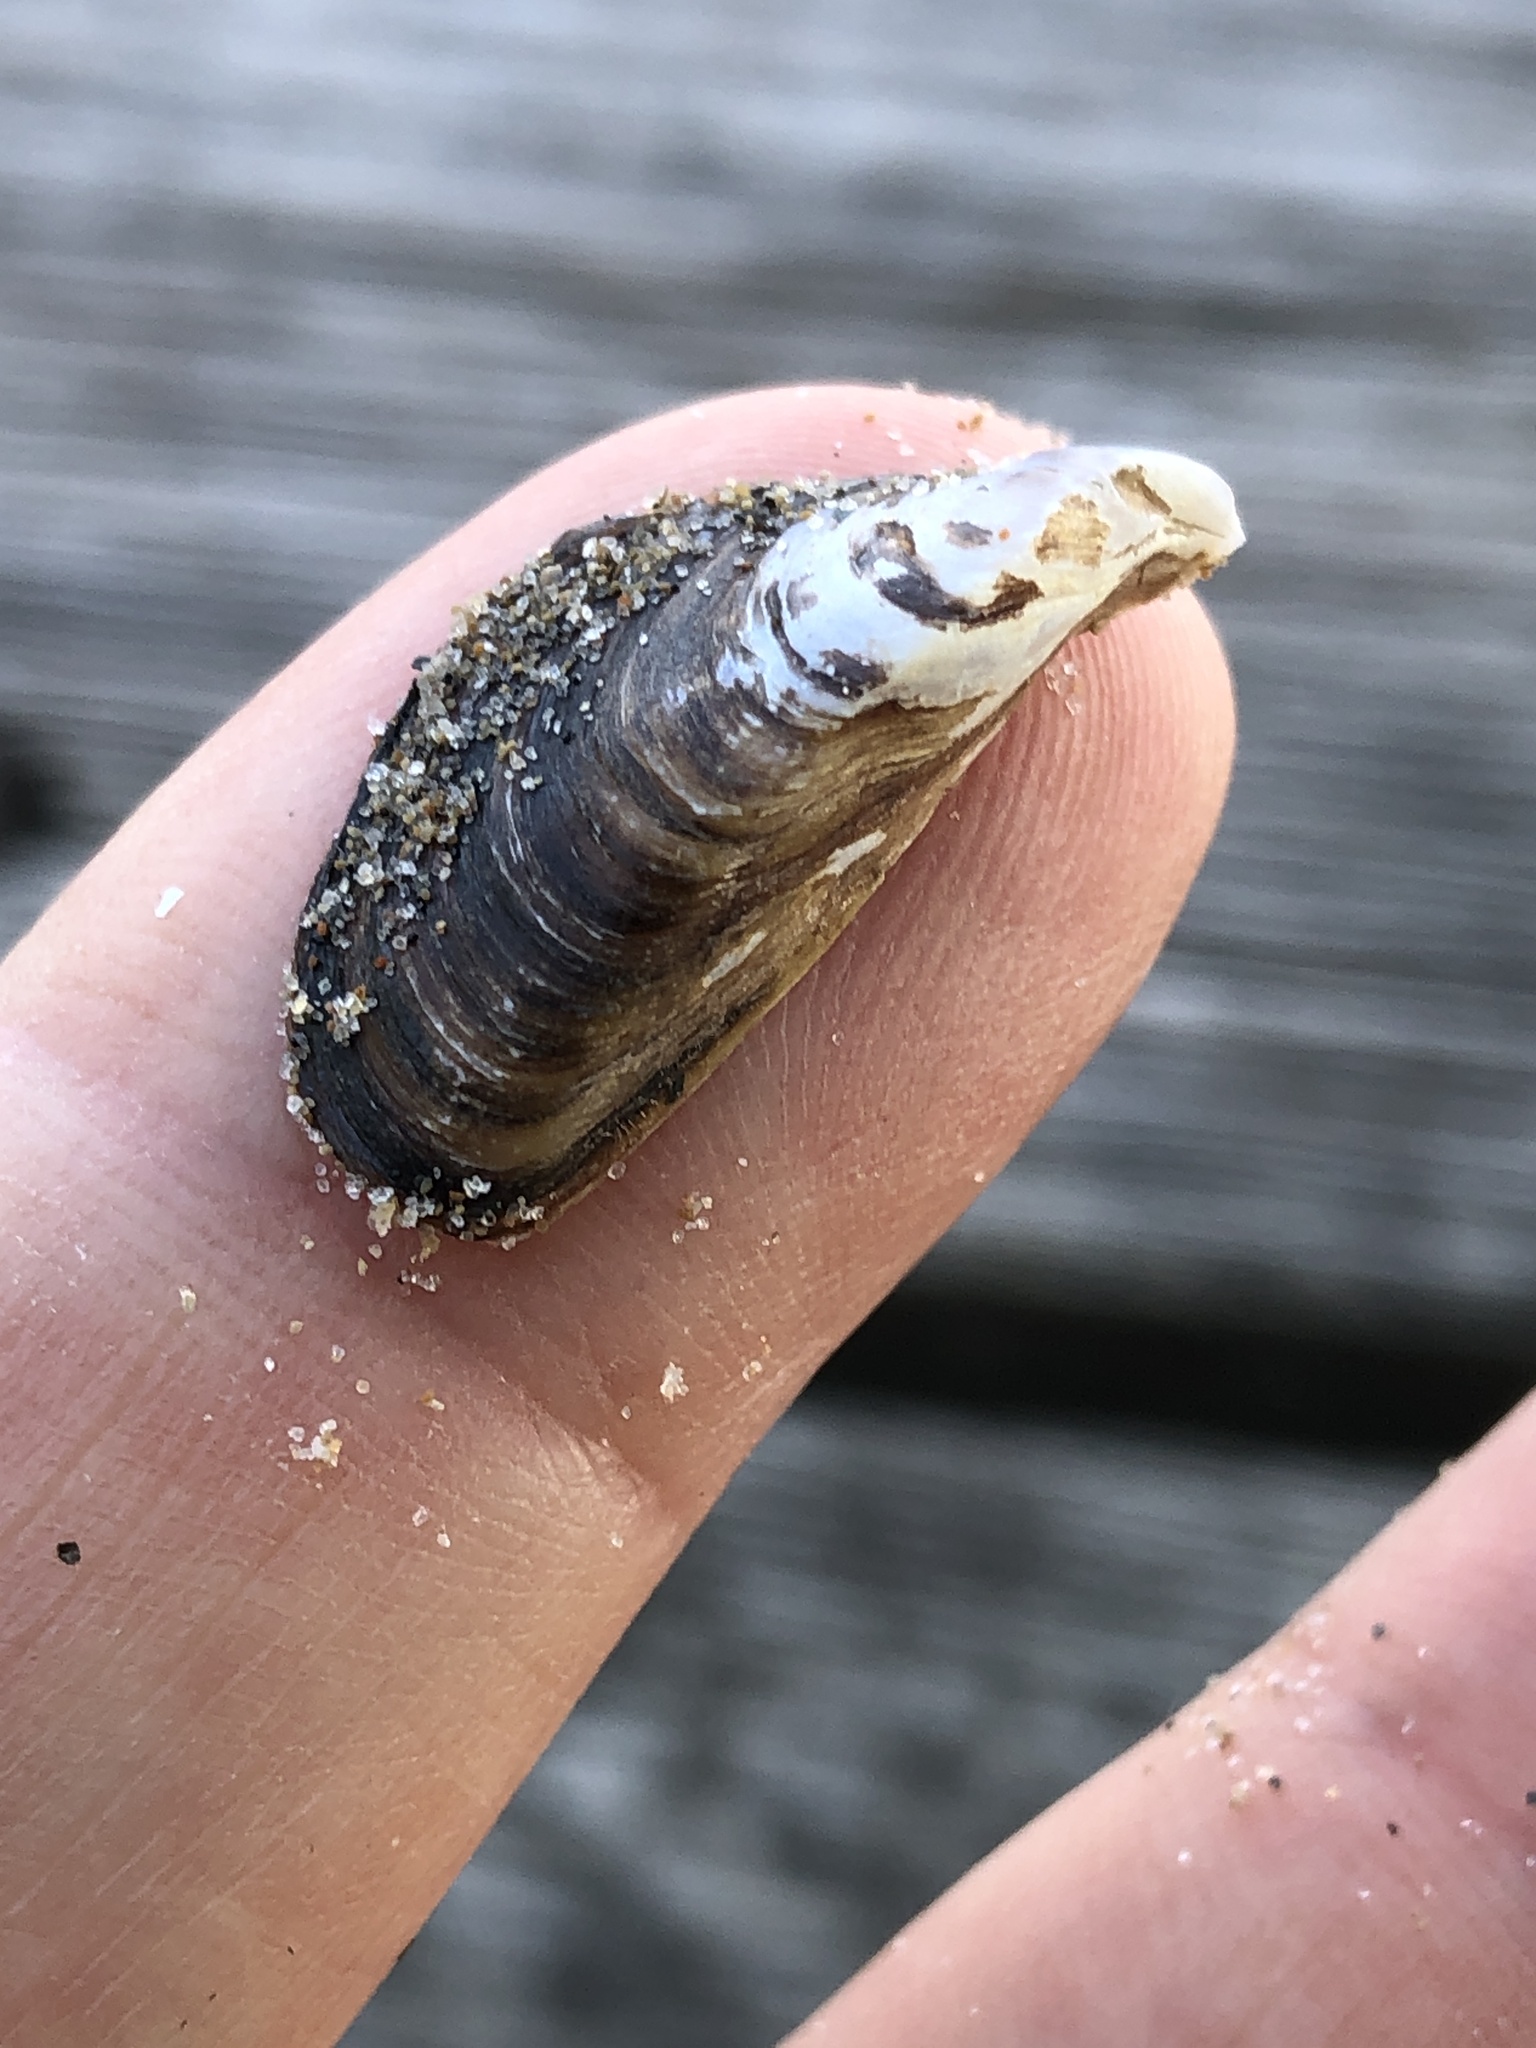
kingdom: Animalia
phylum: Mollusca
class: Bivalvia
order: Myida
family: Dreissenidae
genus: Dreissena
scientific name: Dreissena polymorpha
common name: Zebra mussel
